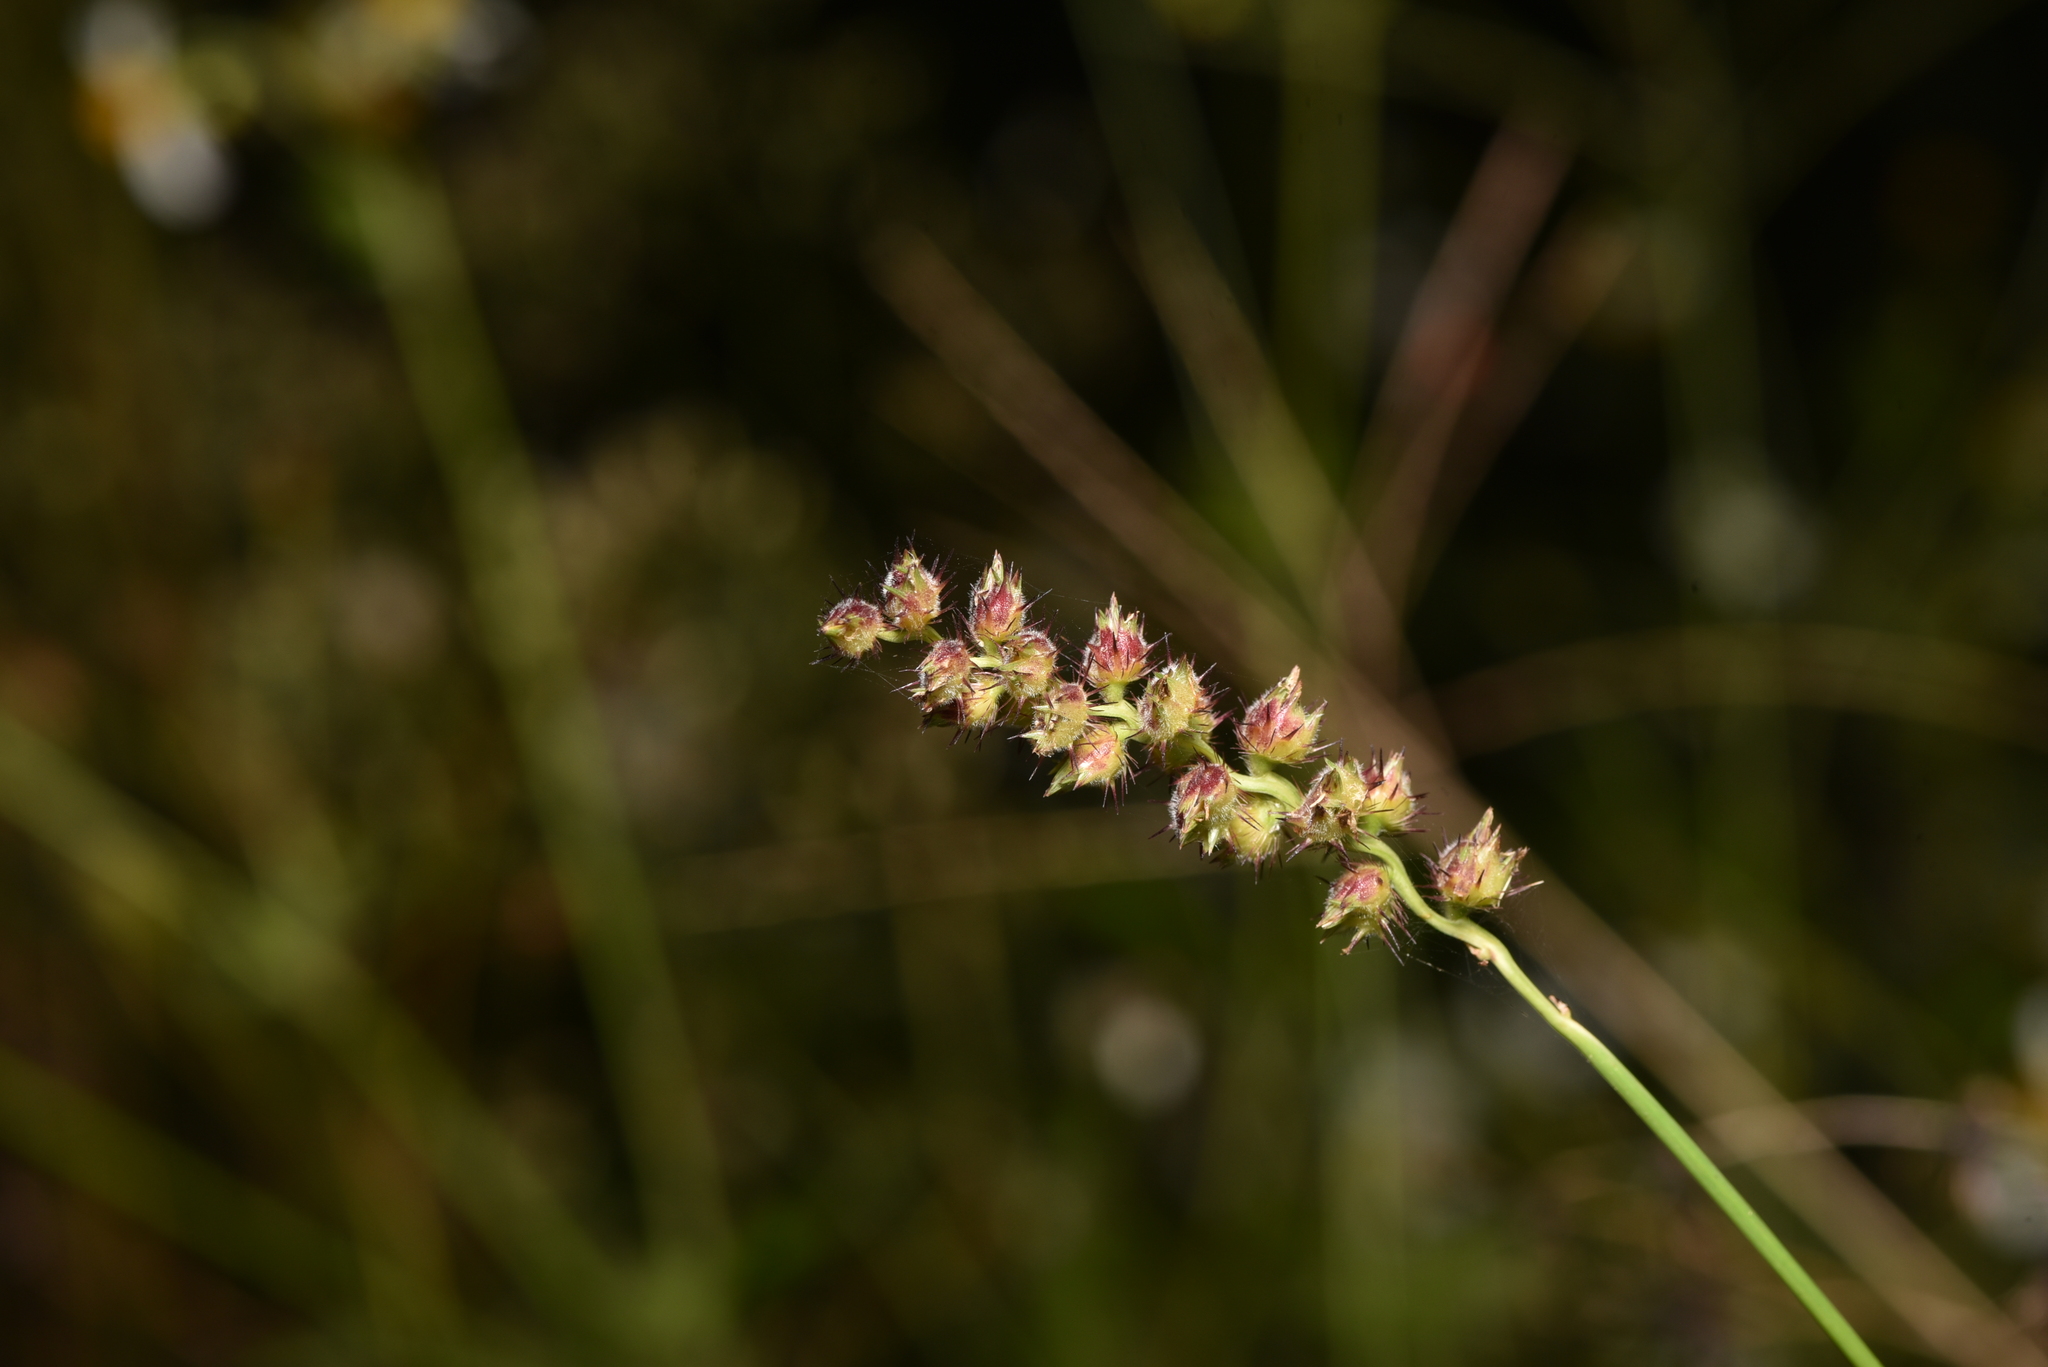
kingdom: Plantae
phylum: Tracheophyta
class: Liliopsida
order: Poales
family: Poaceae
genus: Cenchrus
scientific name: Cenchrus echinatus
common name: Southern sandbur
